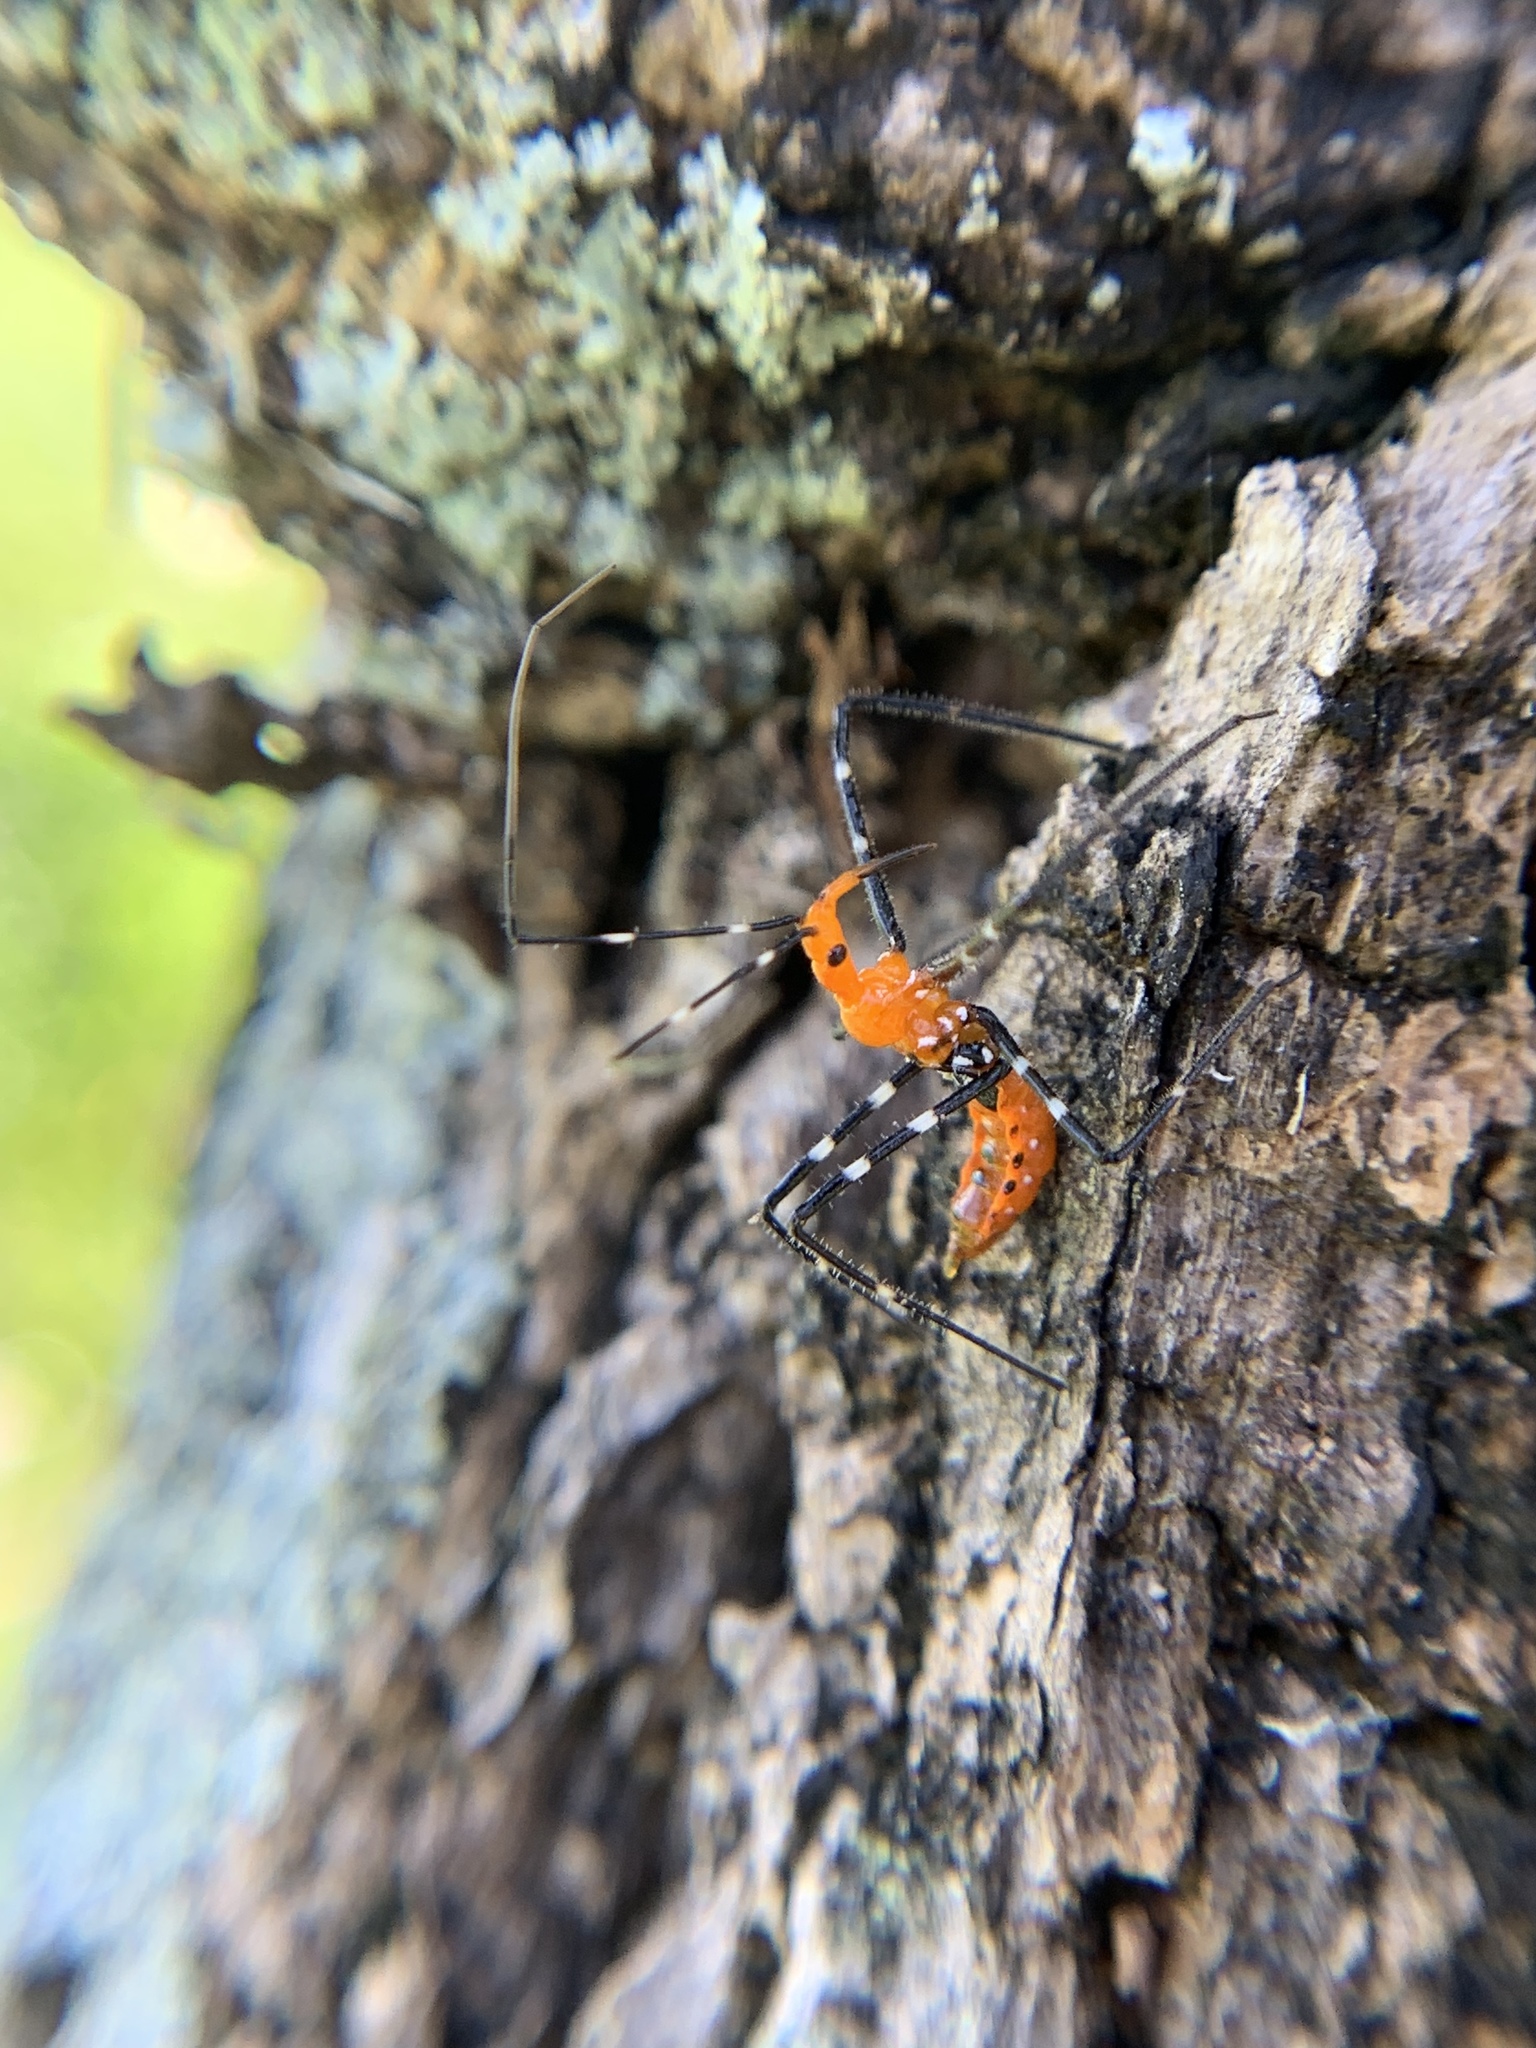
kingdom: Animalia
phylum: Arthropoda
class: Insecta
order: Hemiptera
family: Reduviidae
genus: Zelus
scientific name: Zelus longipes
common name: Milkweed assassin bug
